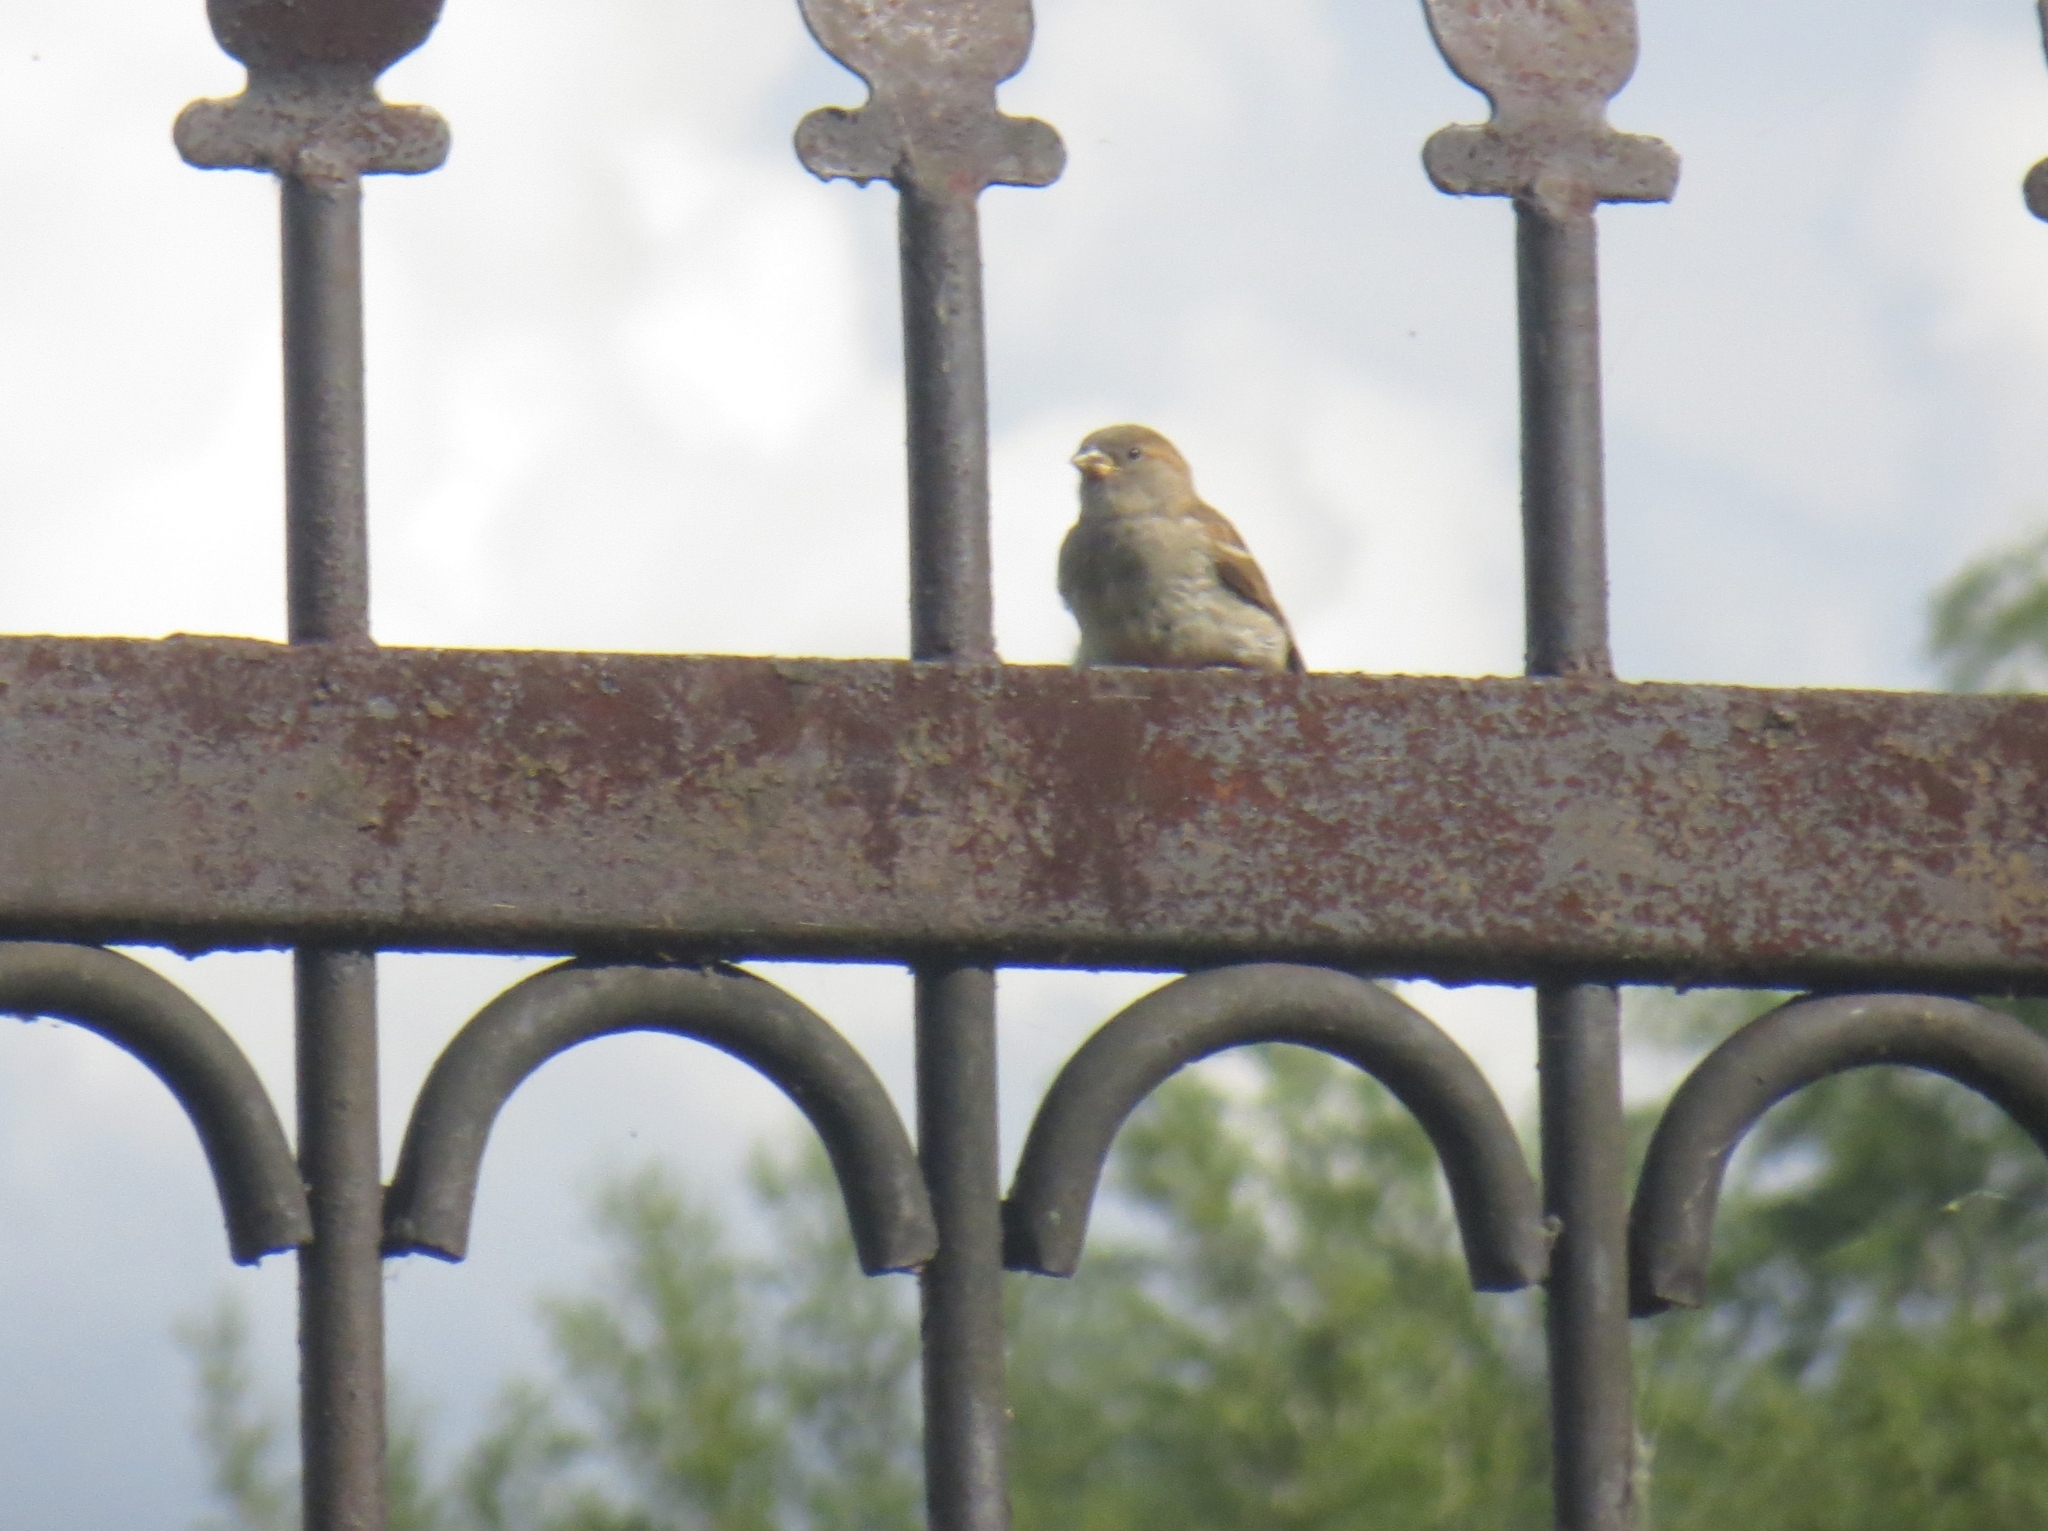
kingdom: Animalia
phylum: Chordata
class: Aves
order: Passeriformes
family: Passeridae
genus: Passer
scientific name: Passer domesticus
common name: House sparrow
